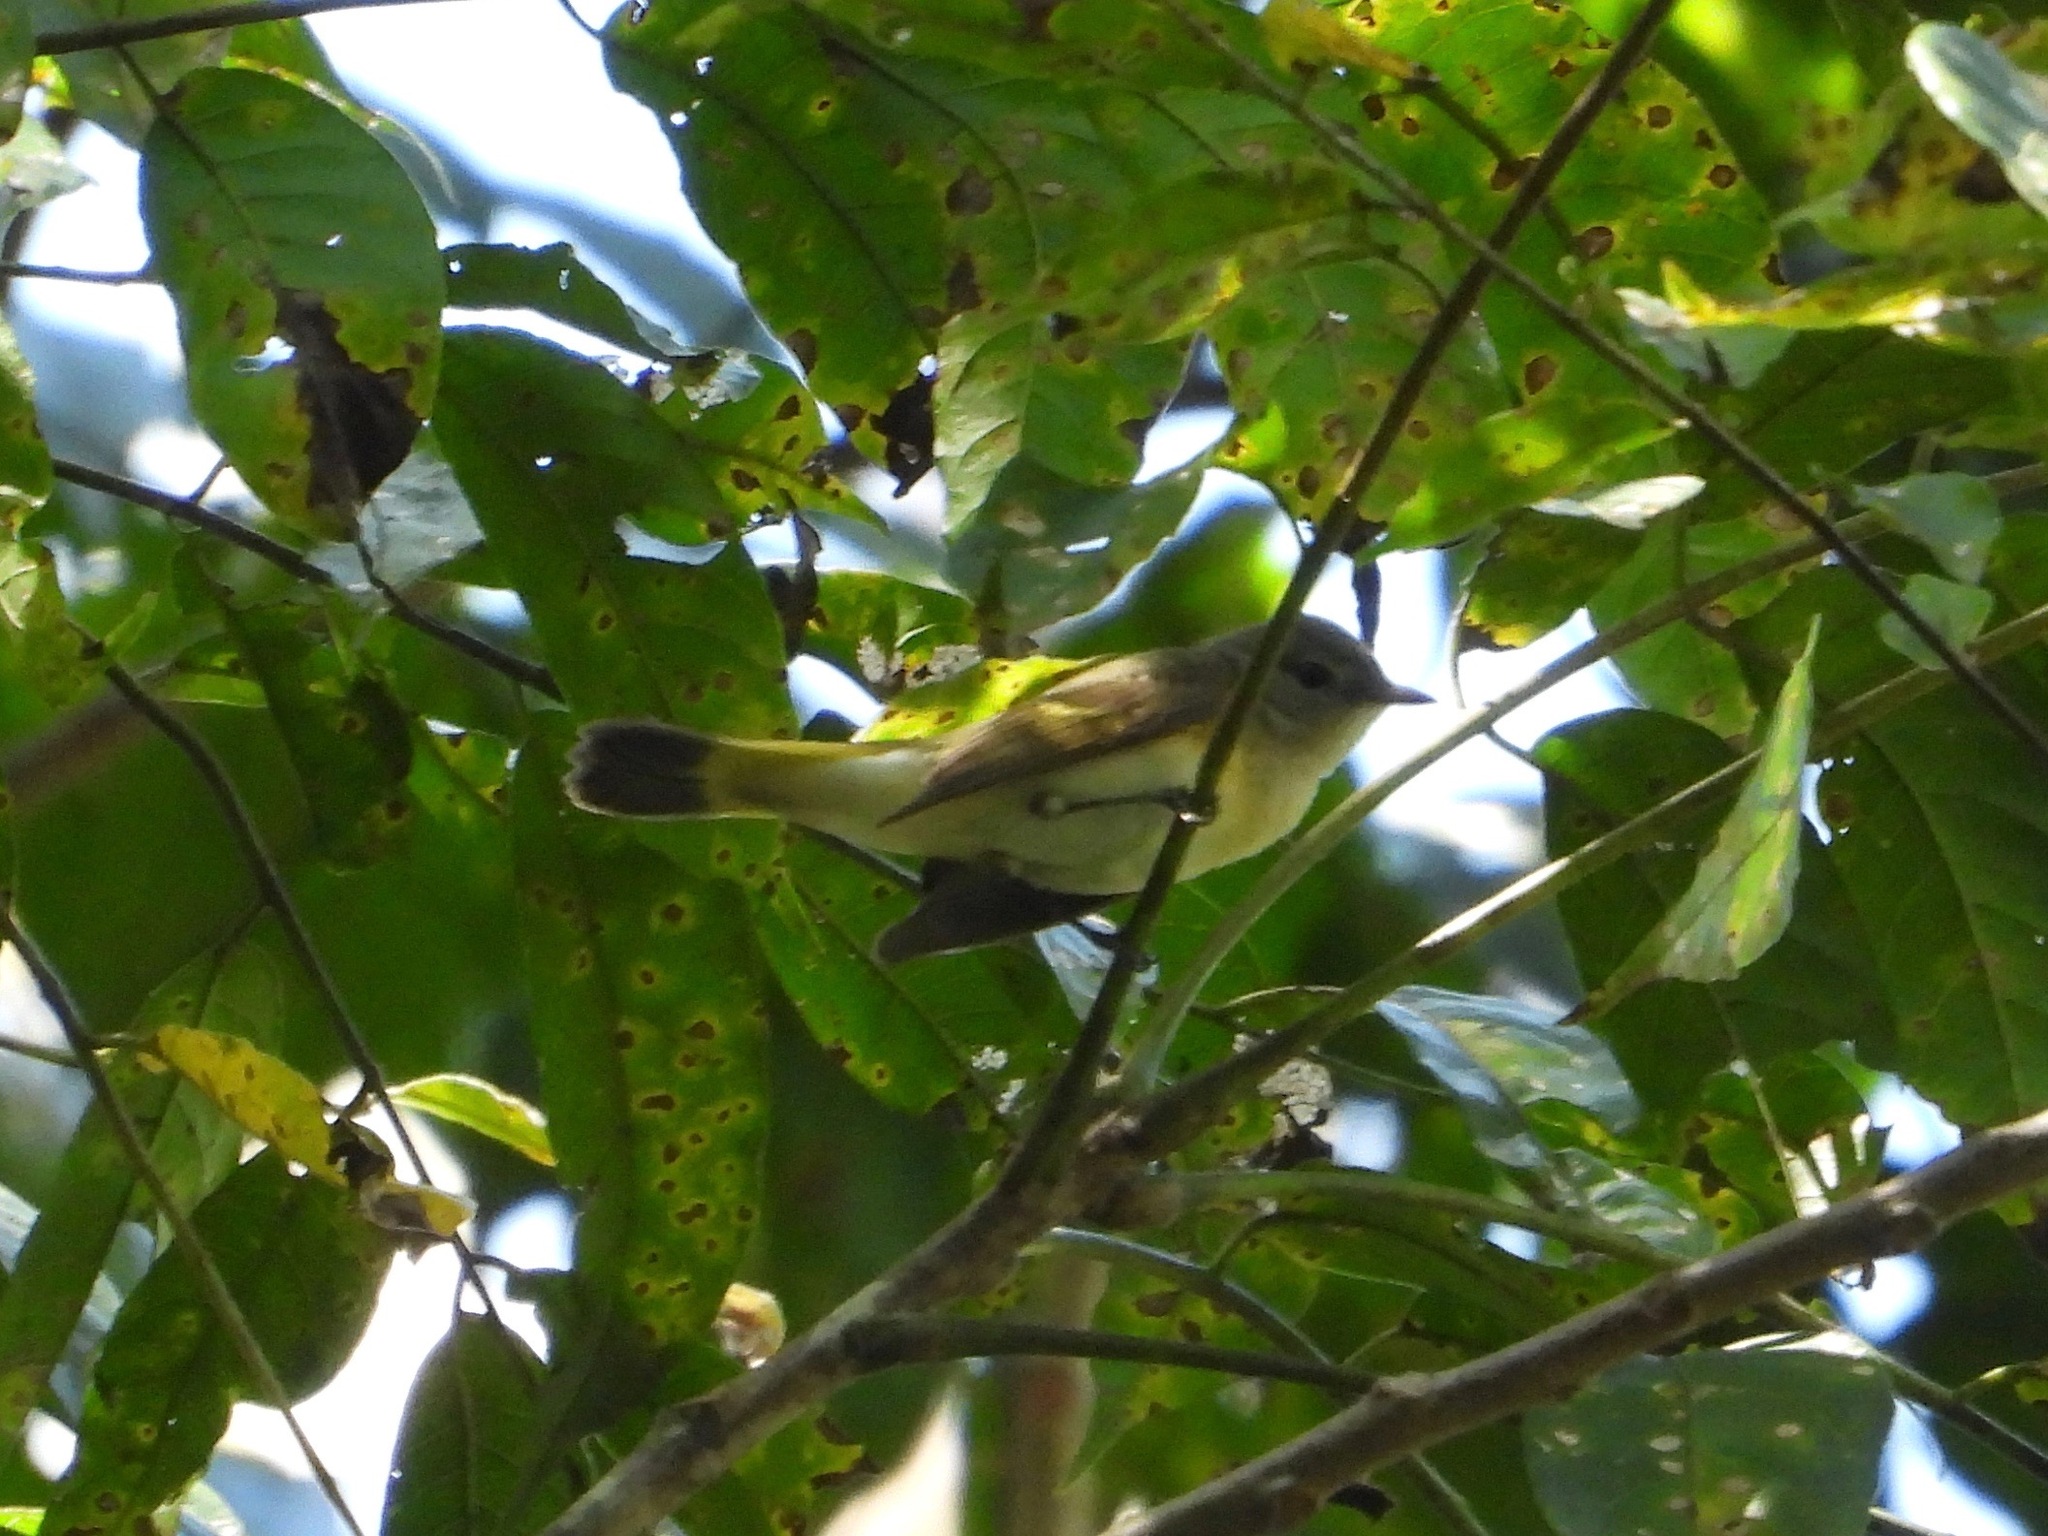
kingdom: Animalia
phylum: Chordata
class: Aves
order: Passeriformes
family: Parulidae
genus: Setophaga
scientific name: Setophaga ruticilla
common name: American redstart
